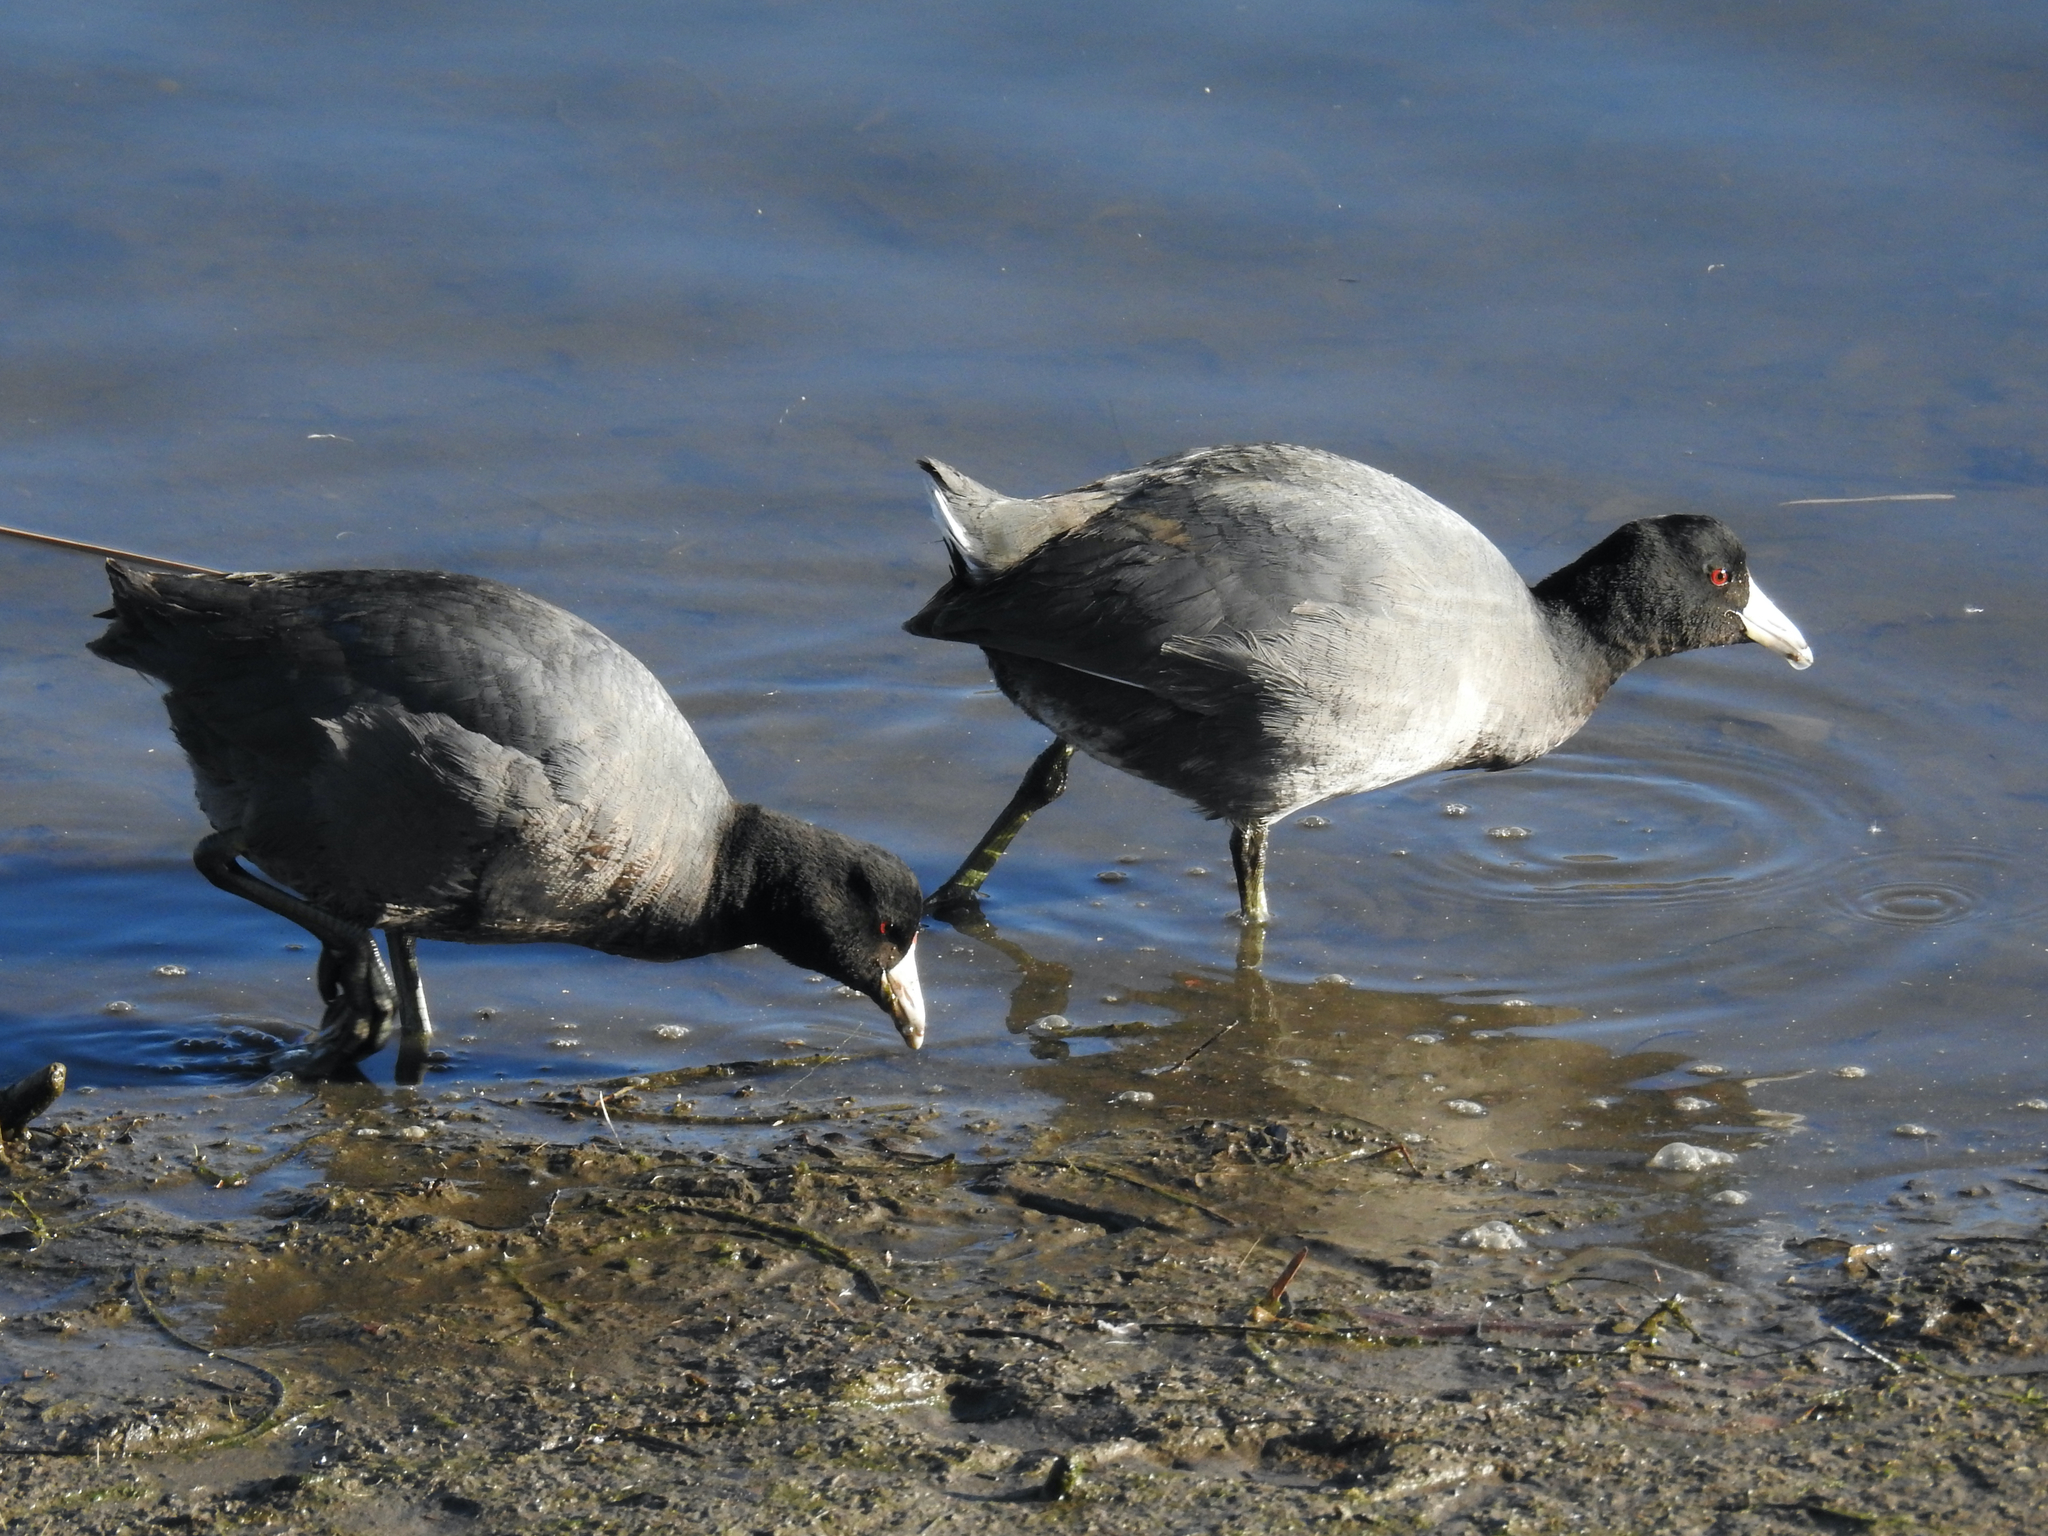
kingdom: Animalia
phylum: Chordata
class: Aves
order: Gruiformes
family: Rallidae
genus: Fulica
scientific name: Fulica americana
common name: American coot
